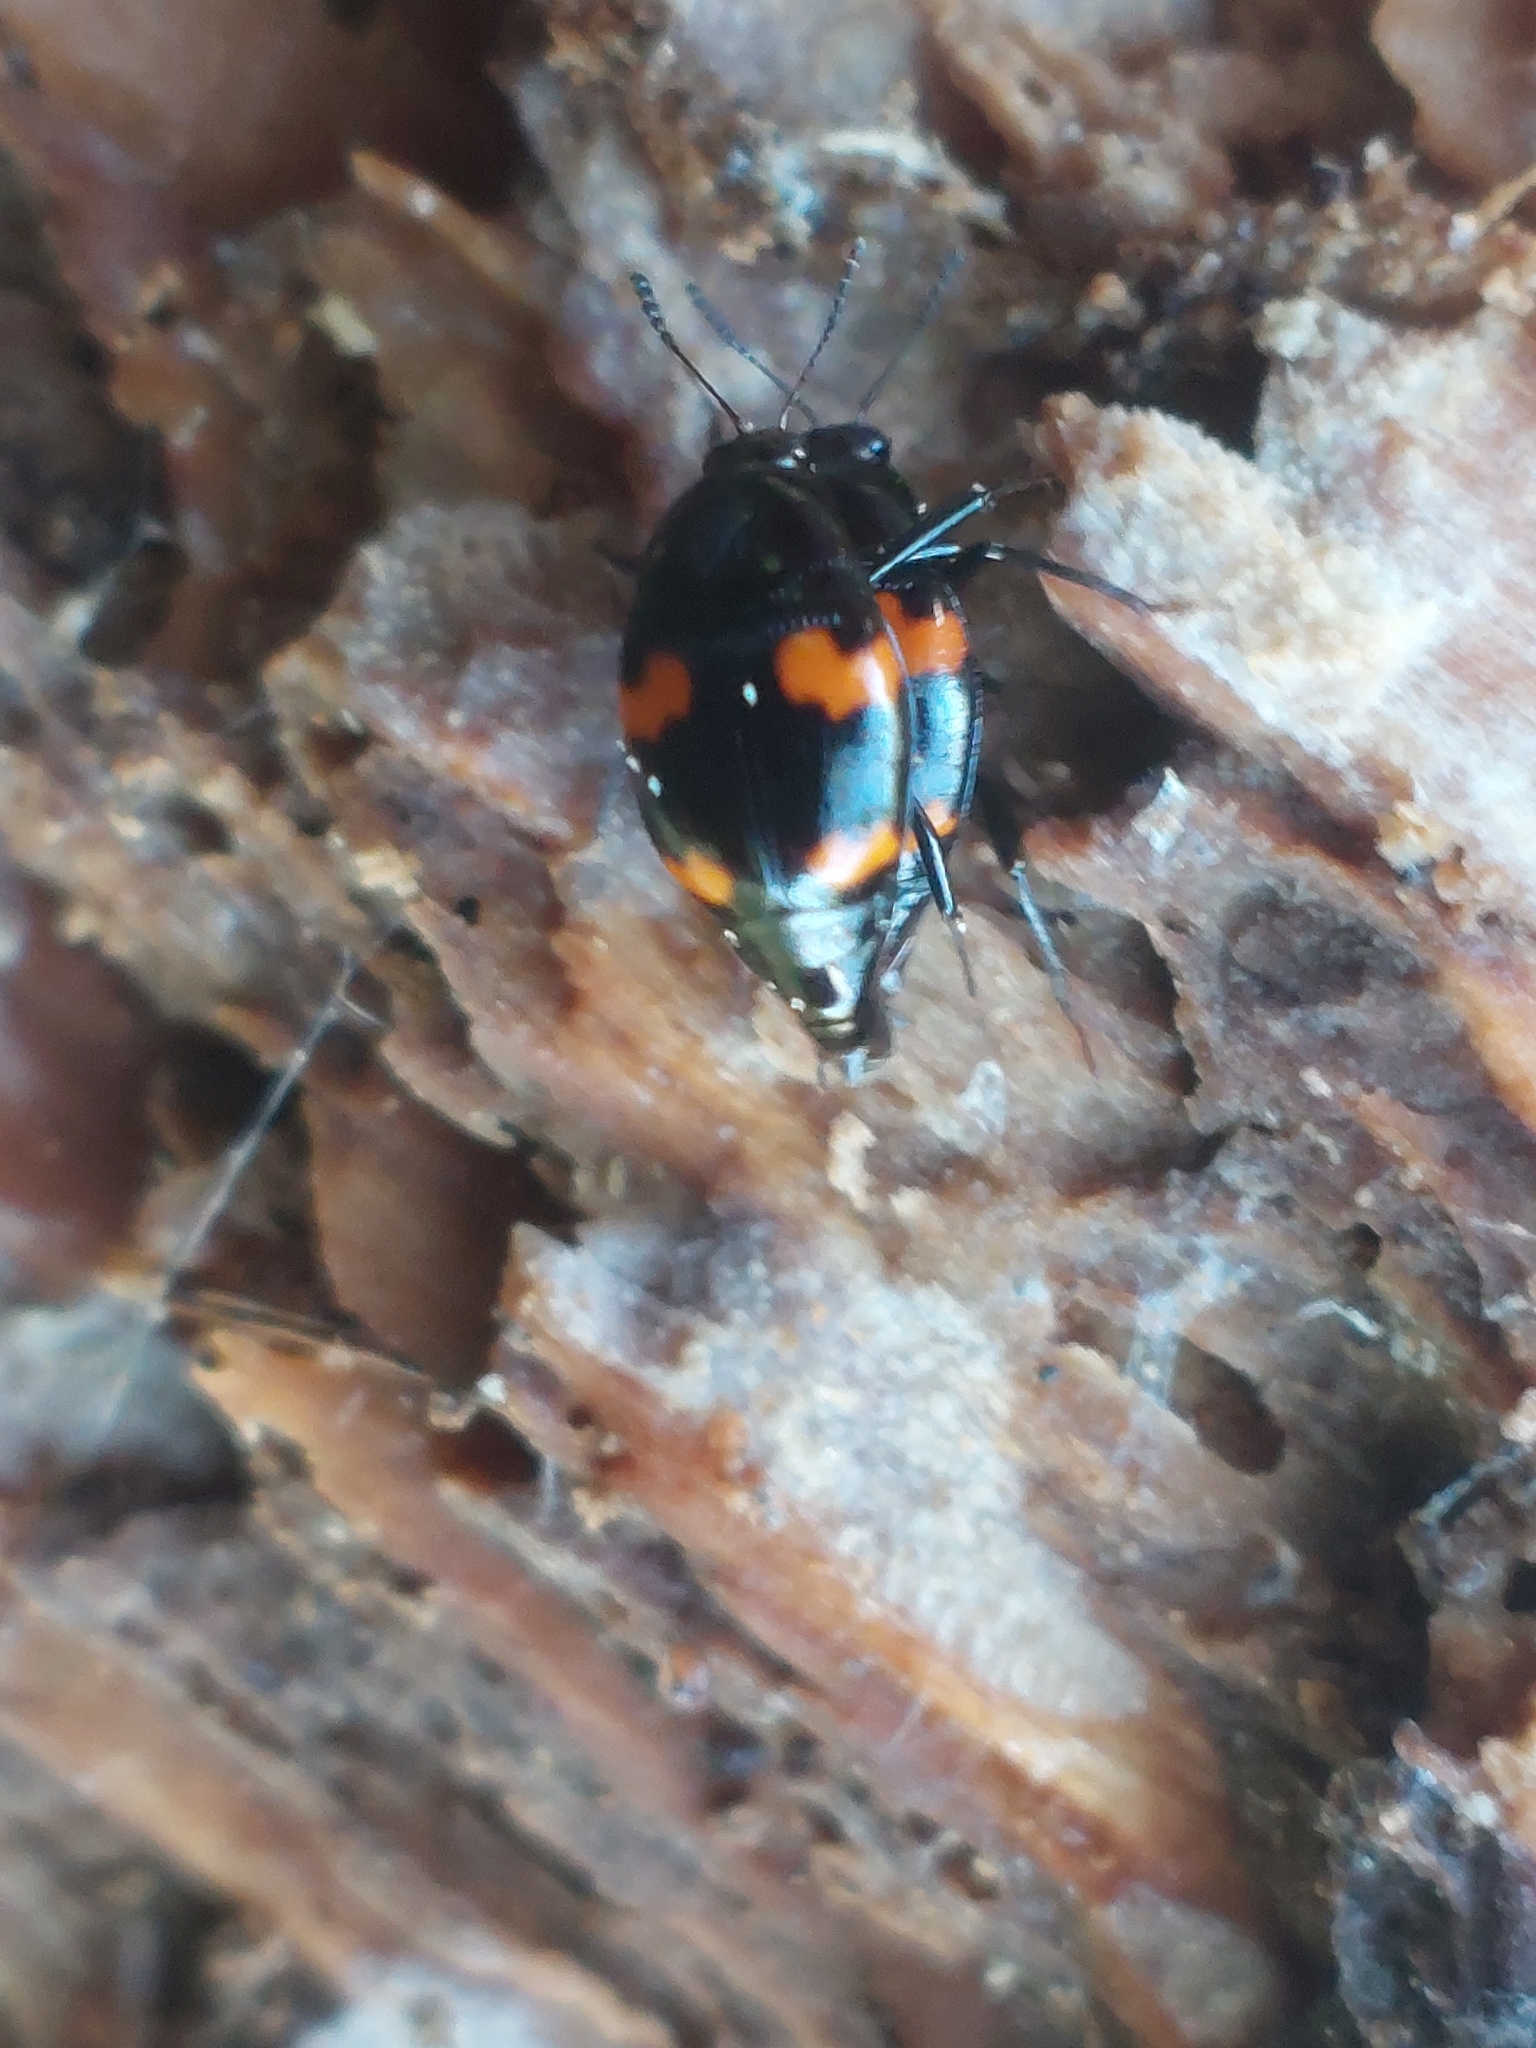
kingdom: Animalia
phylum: Arthropoda
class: Insecta
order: Coleoptera
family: Staphylinidae
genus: Scaphidium
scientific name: Scaphidium quadrimaculatum
